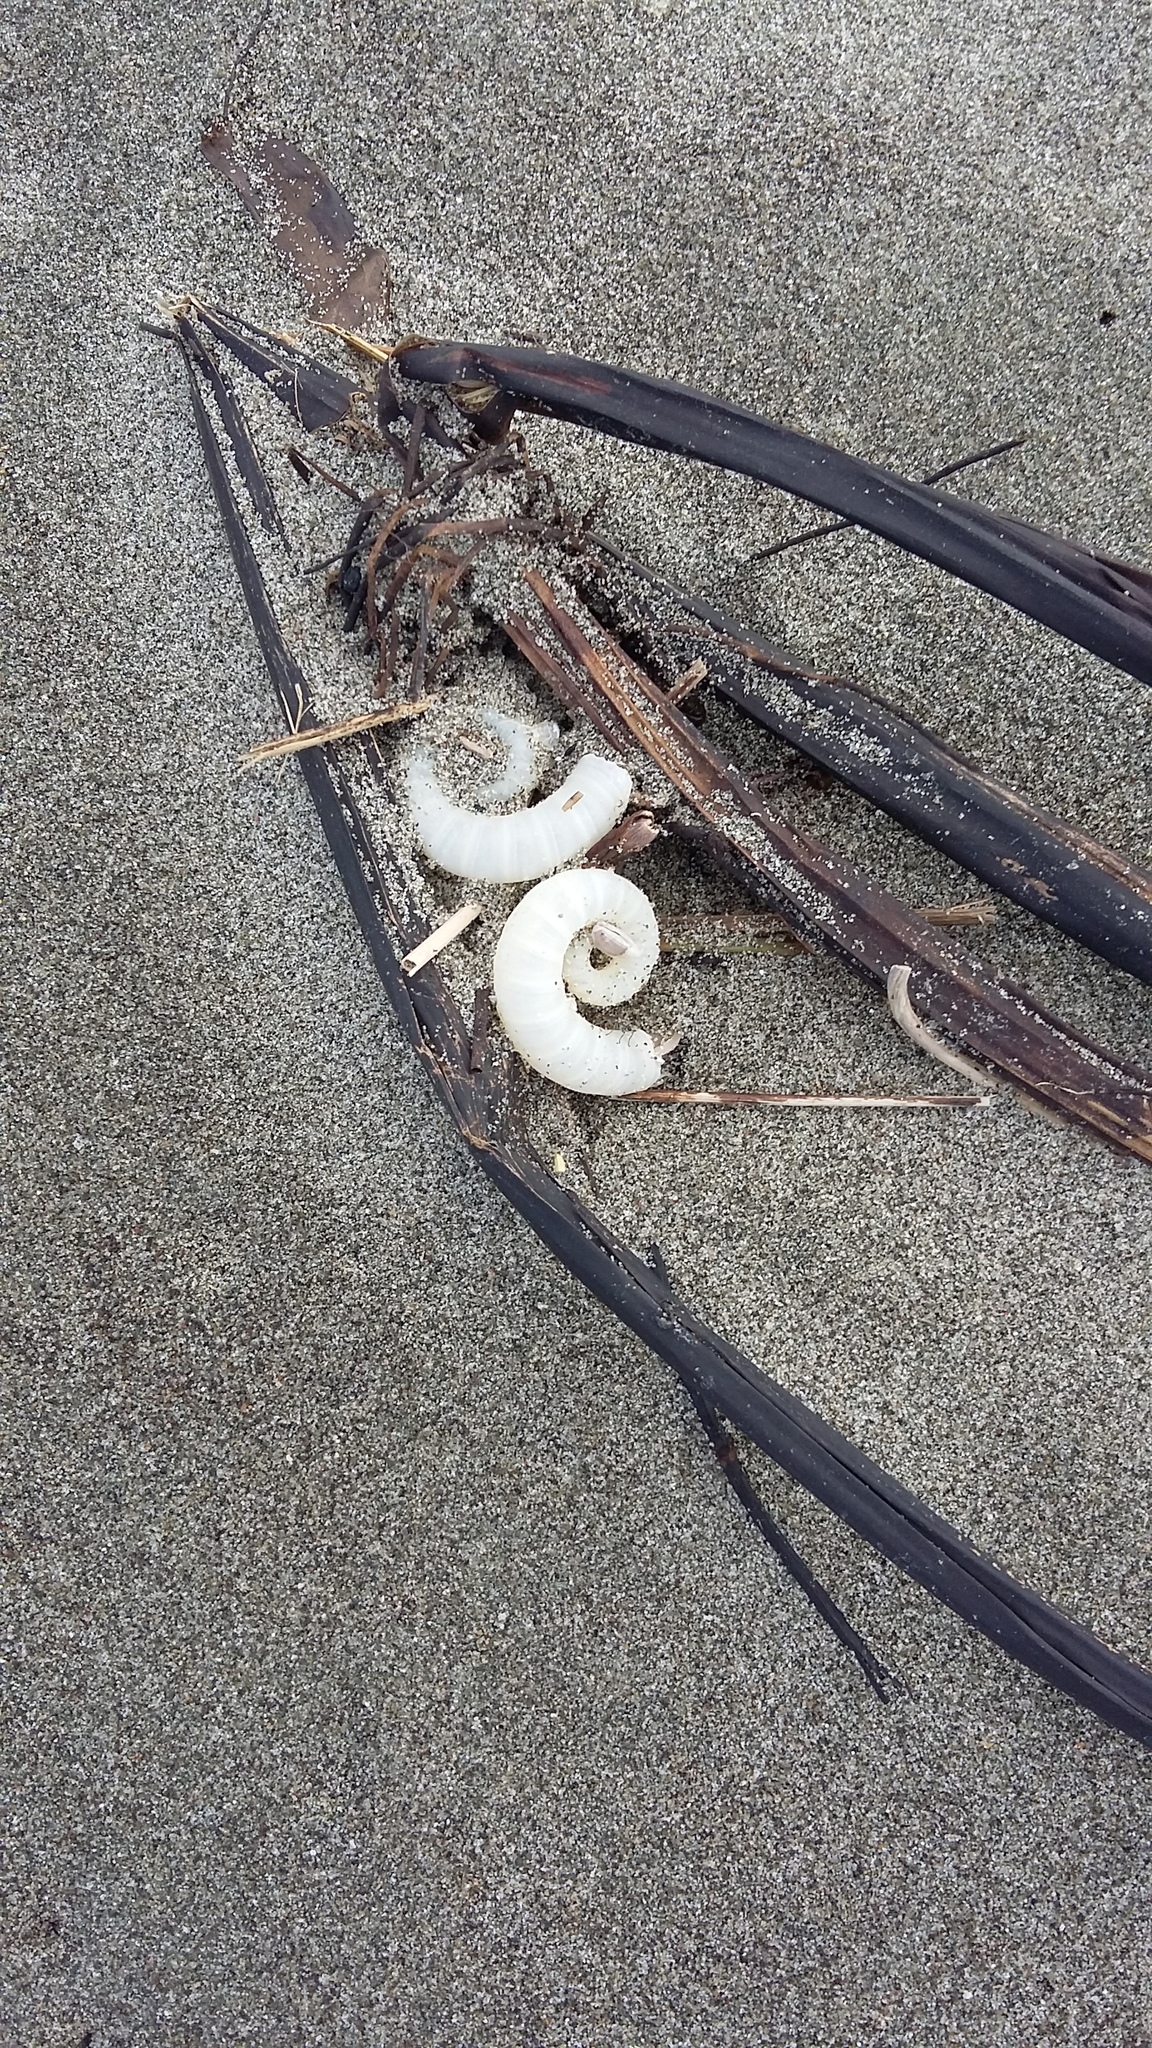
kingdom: Animalia
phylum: Mollusca
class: Cephalopoda
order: Spirulida
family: Spirulidae
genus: Spirula
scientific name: Spirula spirula
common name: Ram's horn squid
